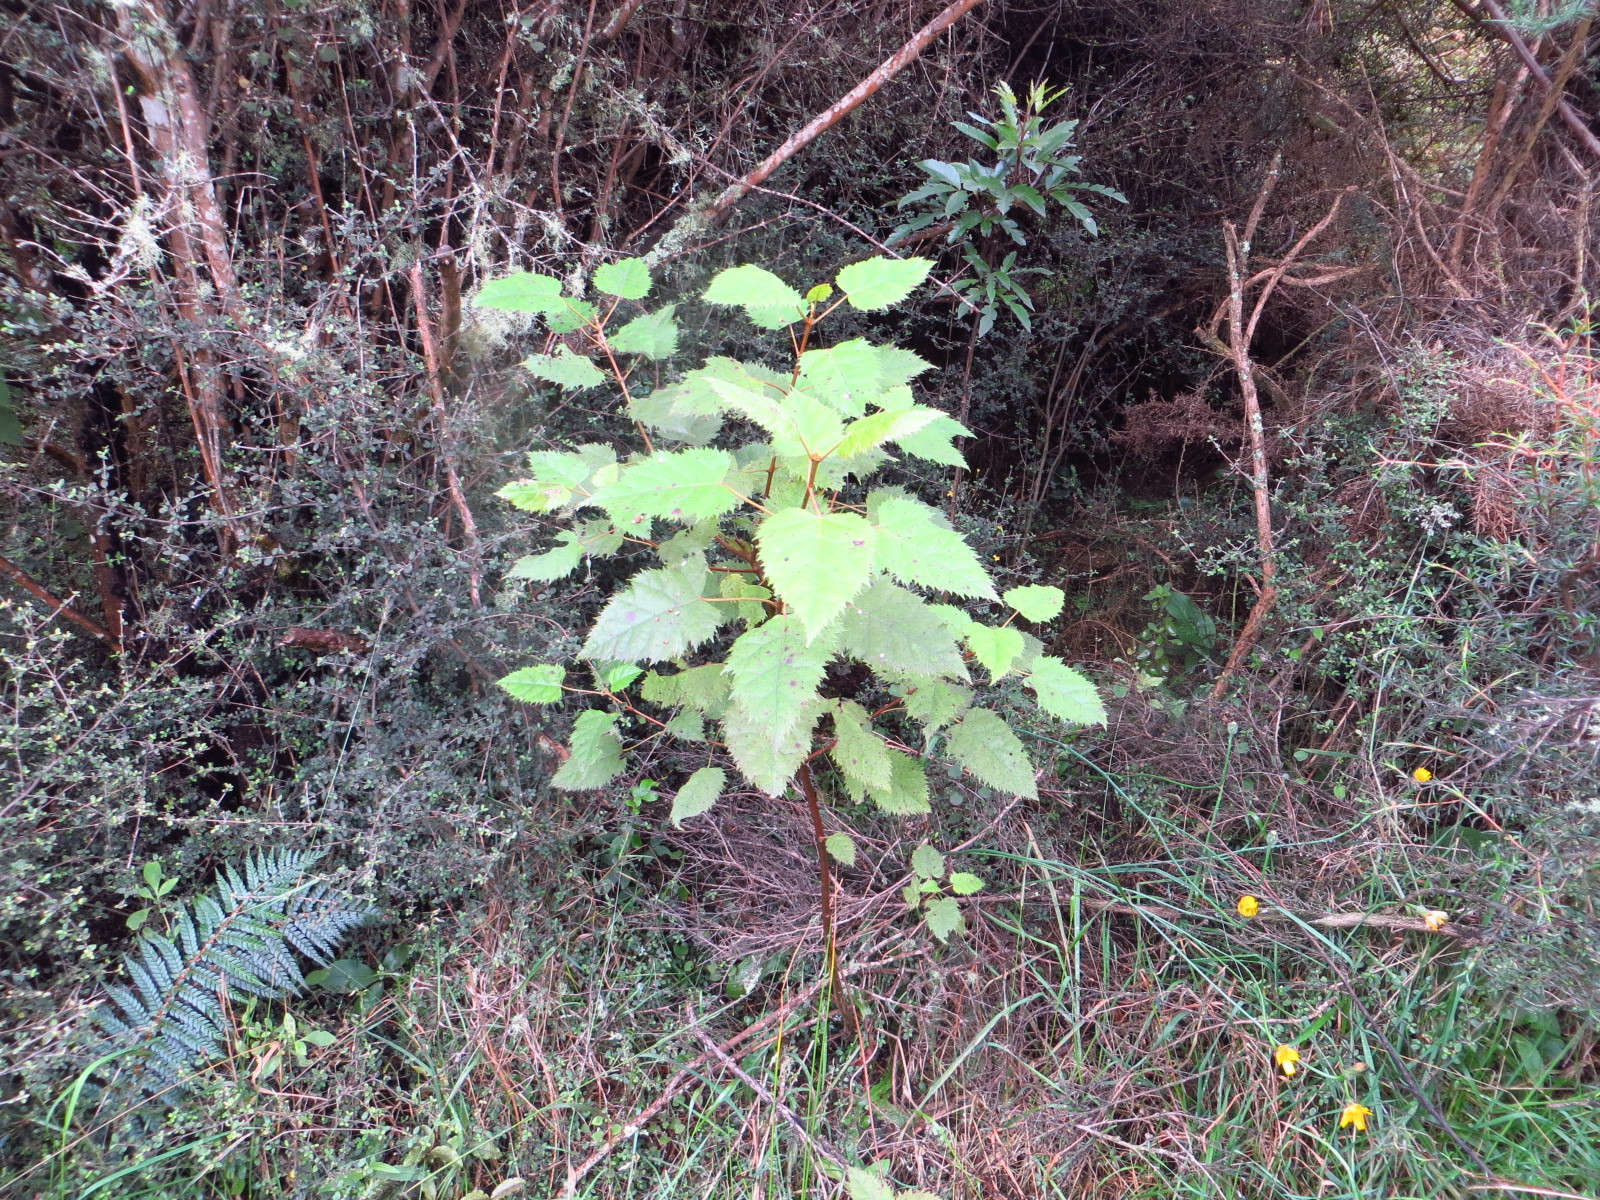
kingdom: Plantae
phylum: Tracheophyta
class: Magnoliopsida
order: Oxalidales
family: Elaeocarpaceae
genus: Aristotelia
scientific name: Aristotelia serrata
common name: New zealand wineberry
